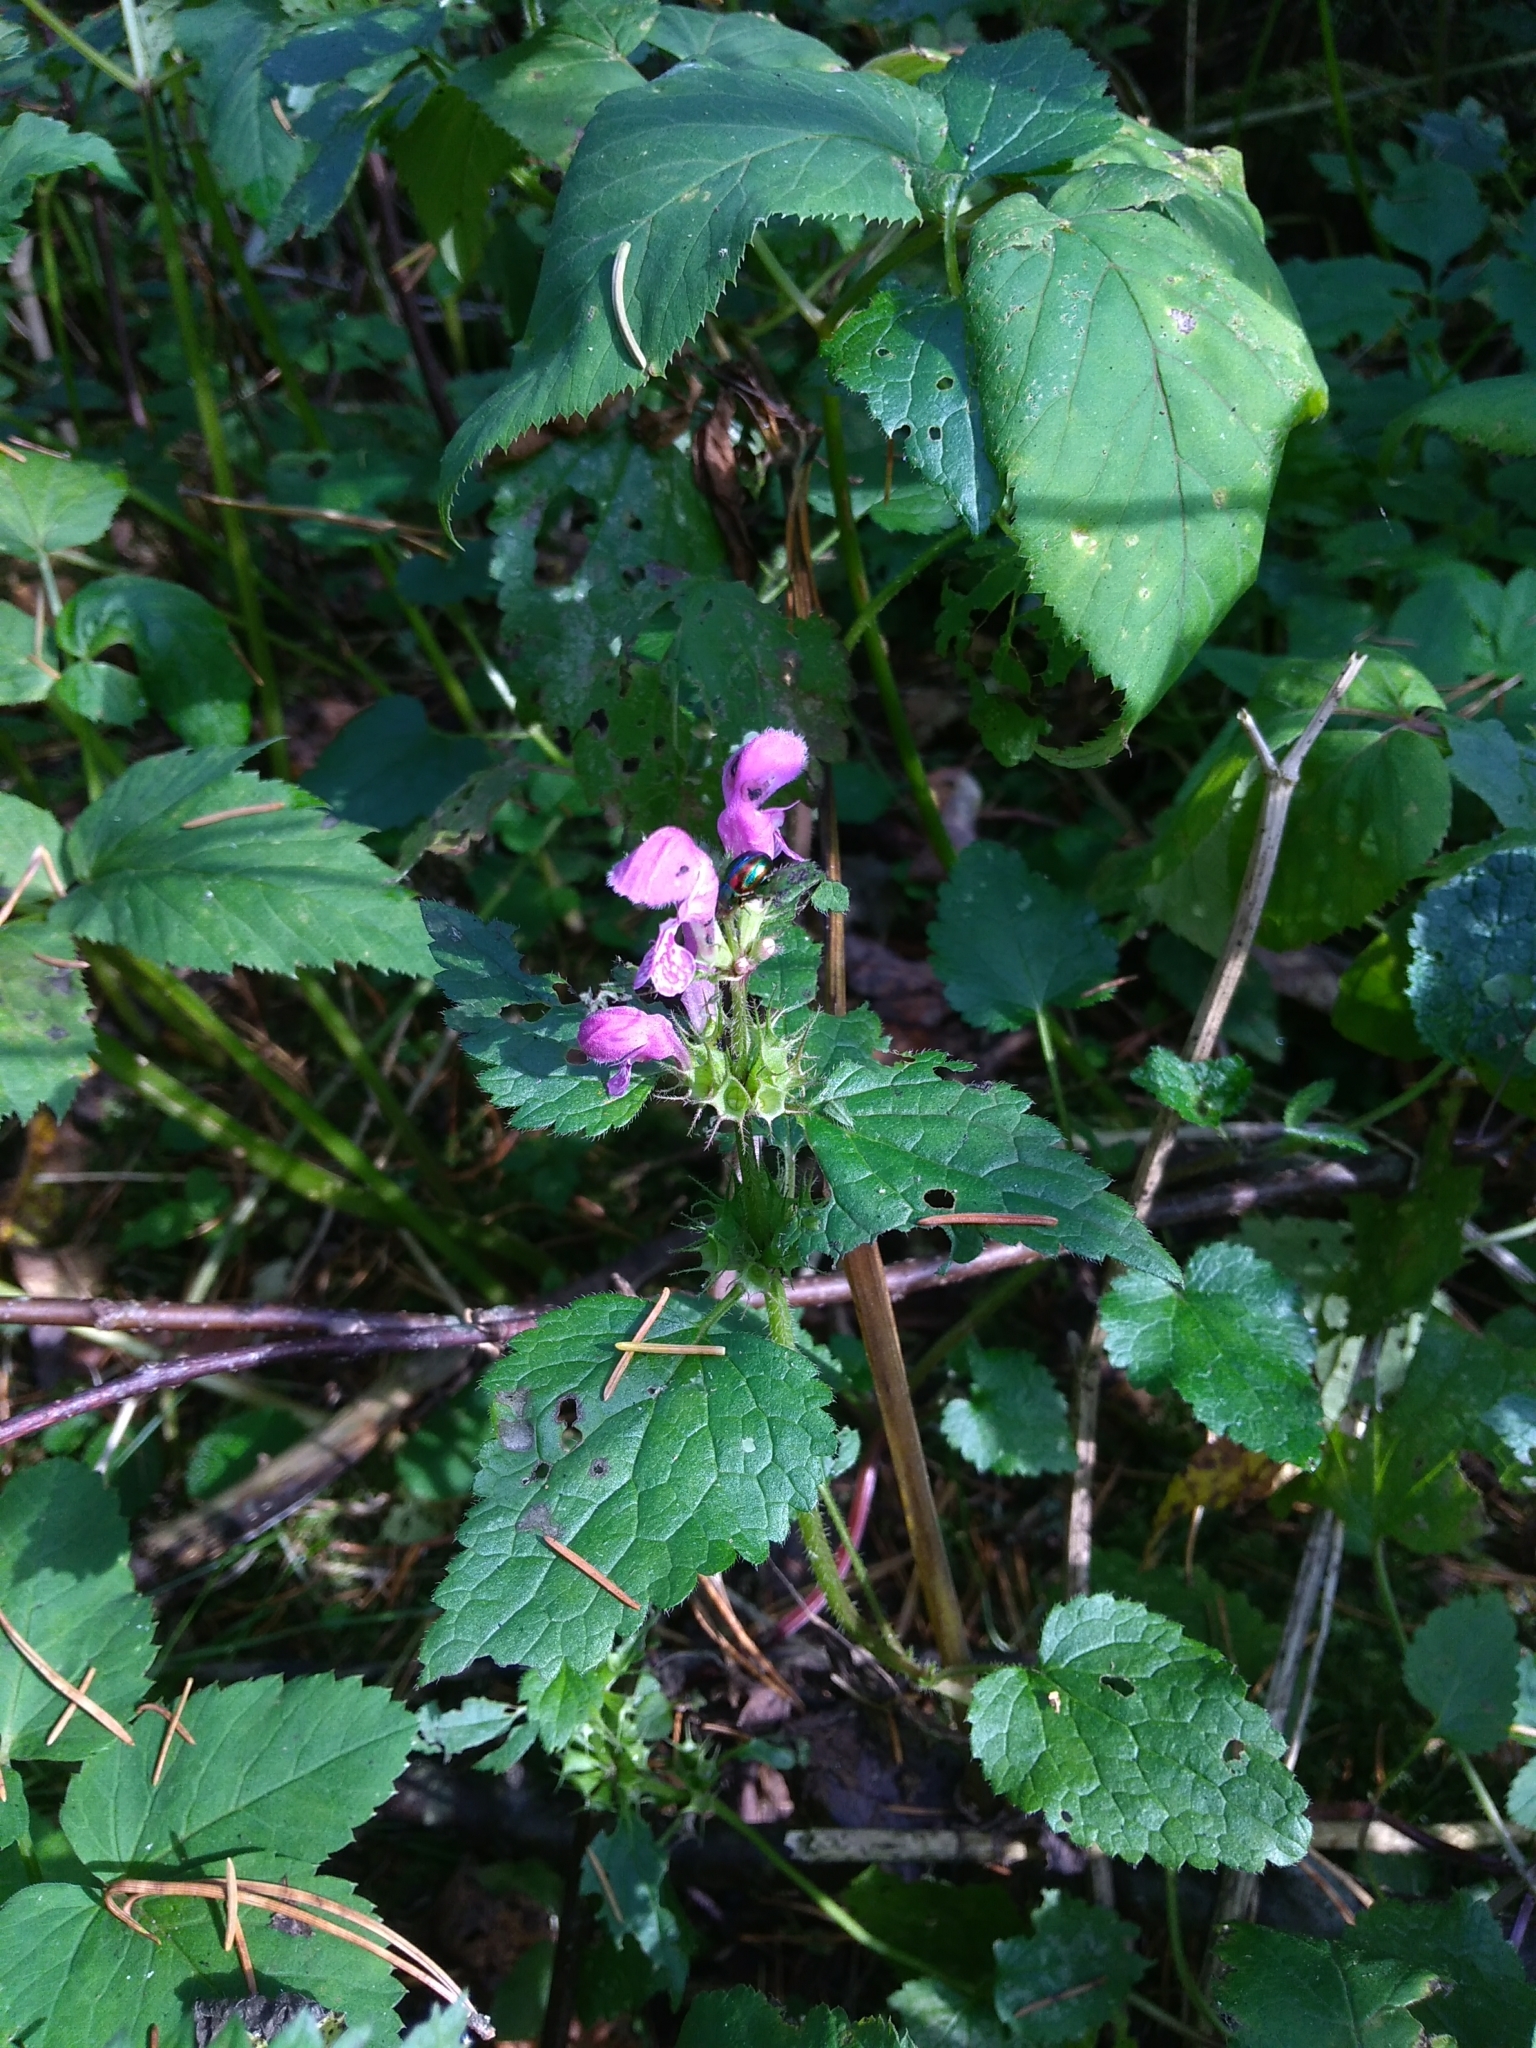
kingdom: Plantae
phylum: Tracheophyta
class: Magnoliopsida
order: Lamiales
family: Lamiaceae
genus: Lamium
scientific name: Lamium maculatum
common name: Spotted dead-nettle
